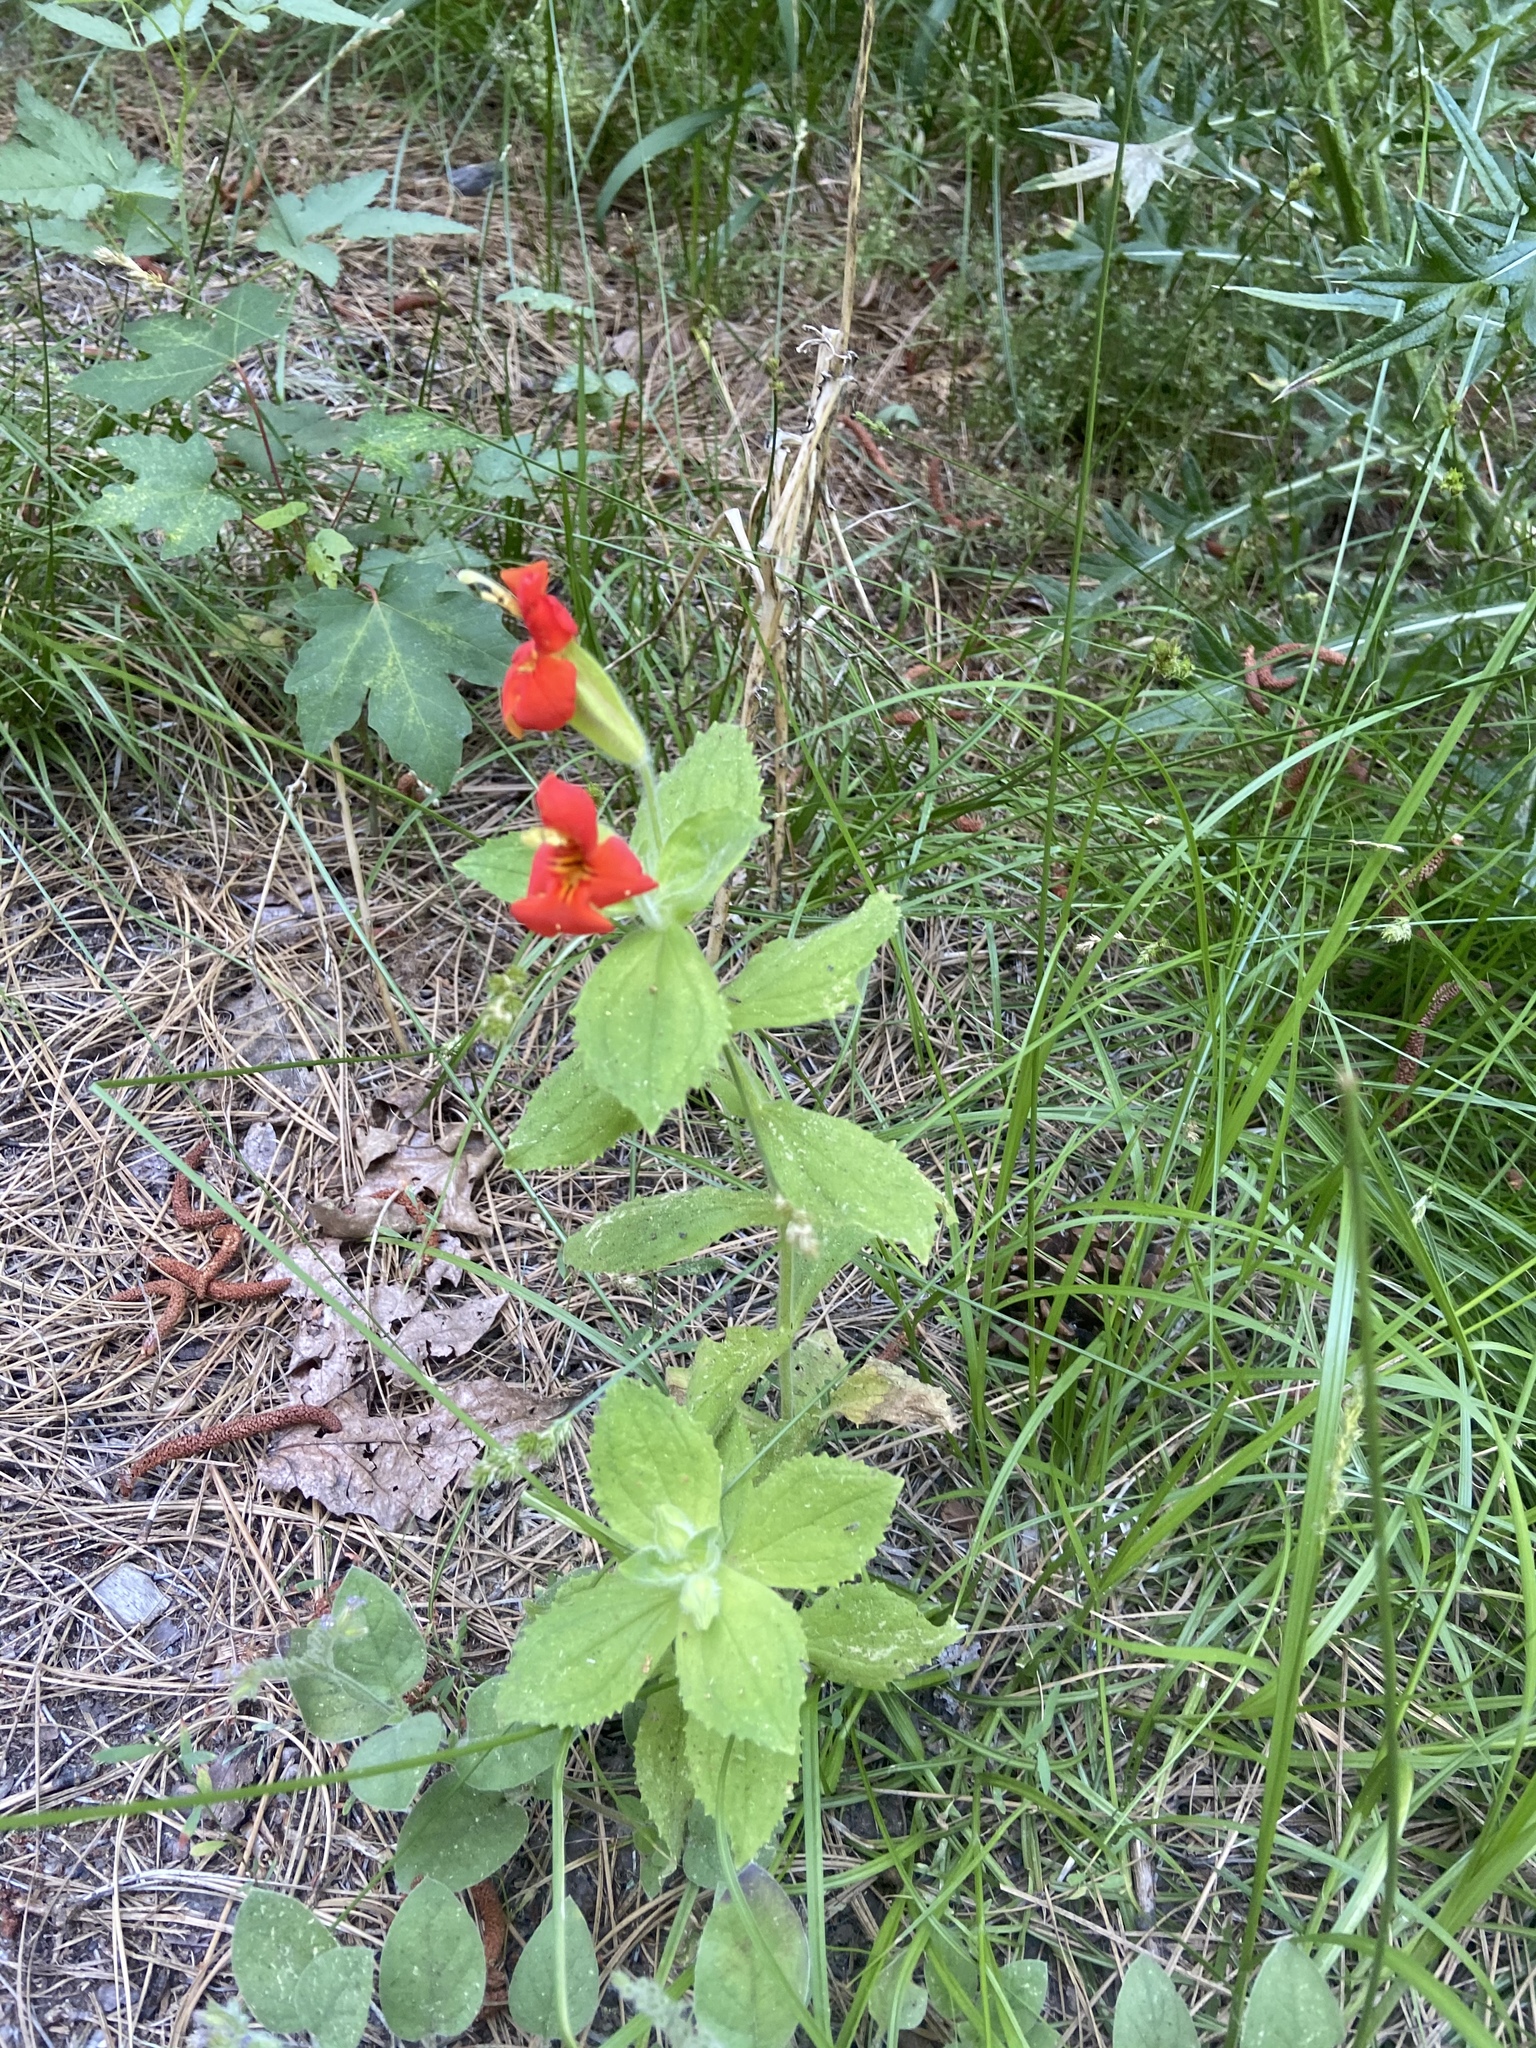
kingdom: Plantae
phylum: Tracheophyta
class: Magnoliopsida
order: Lamiales
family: Phrymaceae
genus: Erythranthe
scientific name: Erythranthe cardinalis
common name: Scarlet monkey-flower
